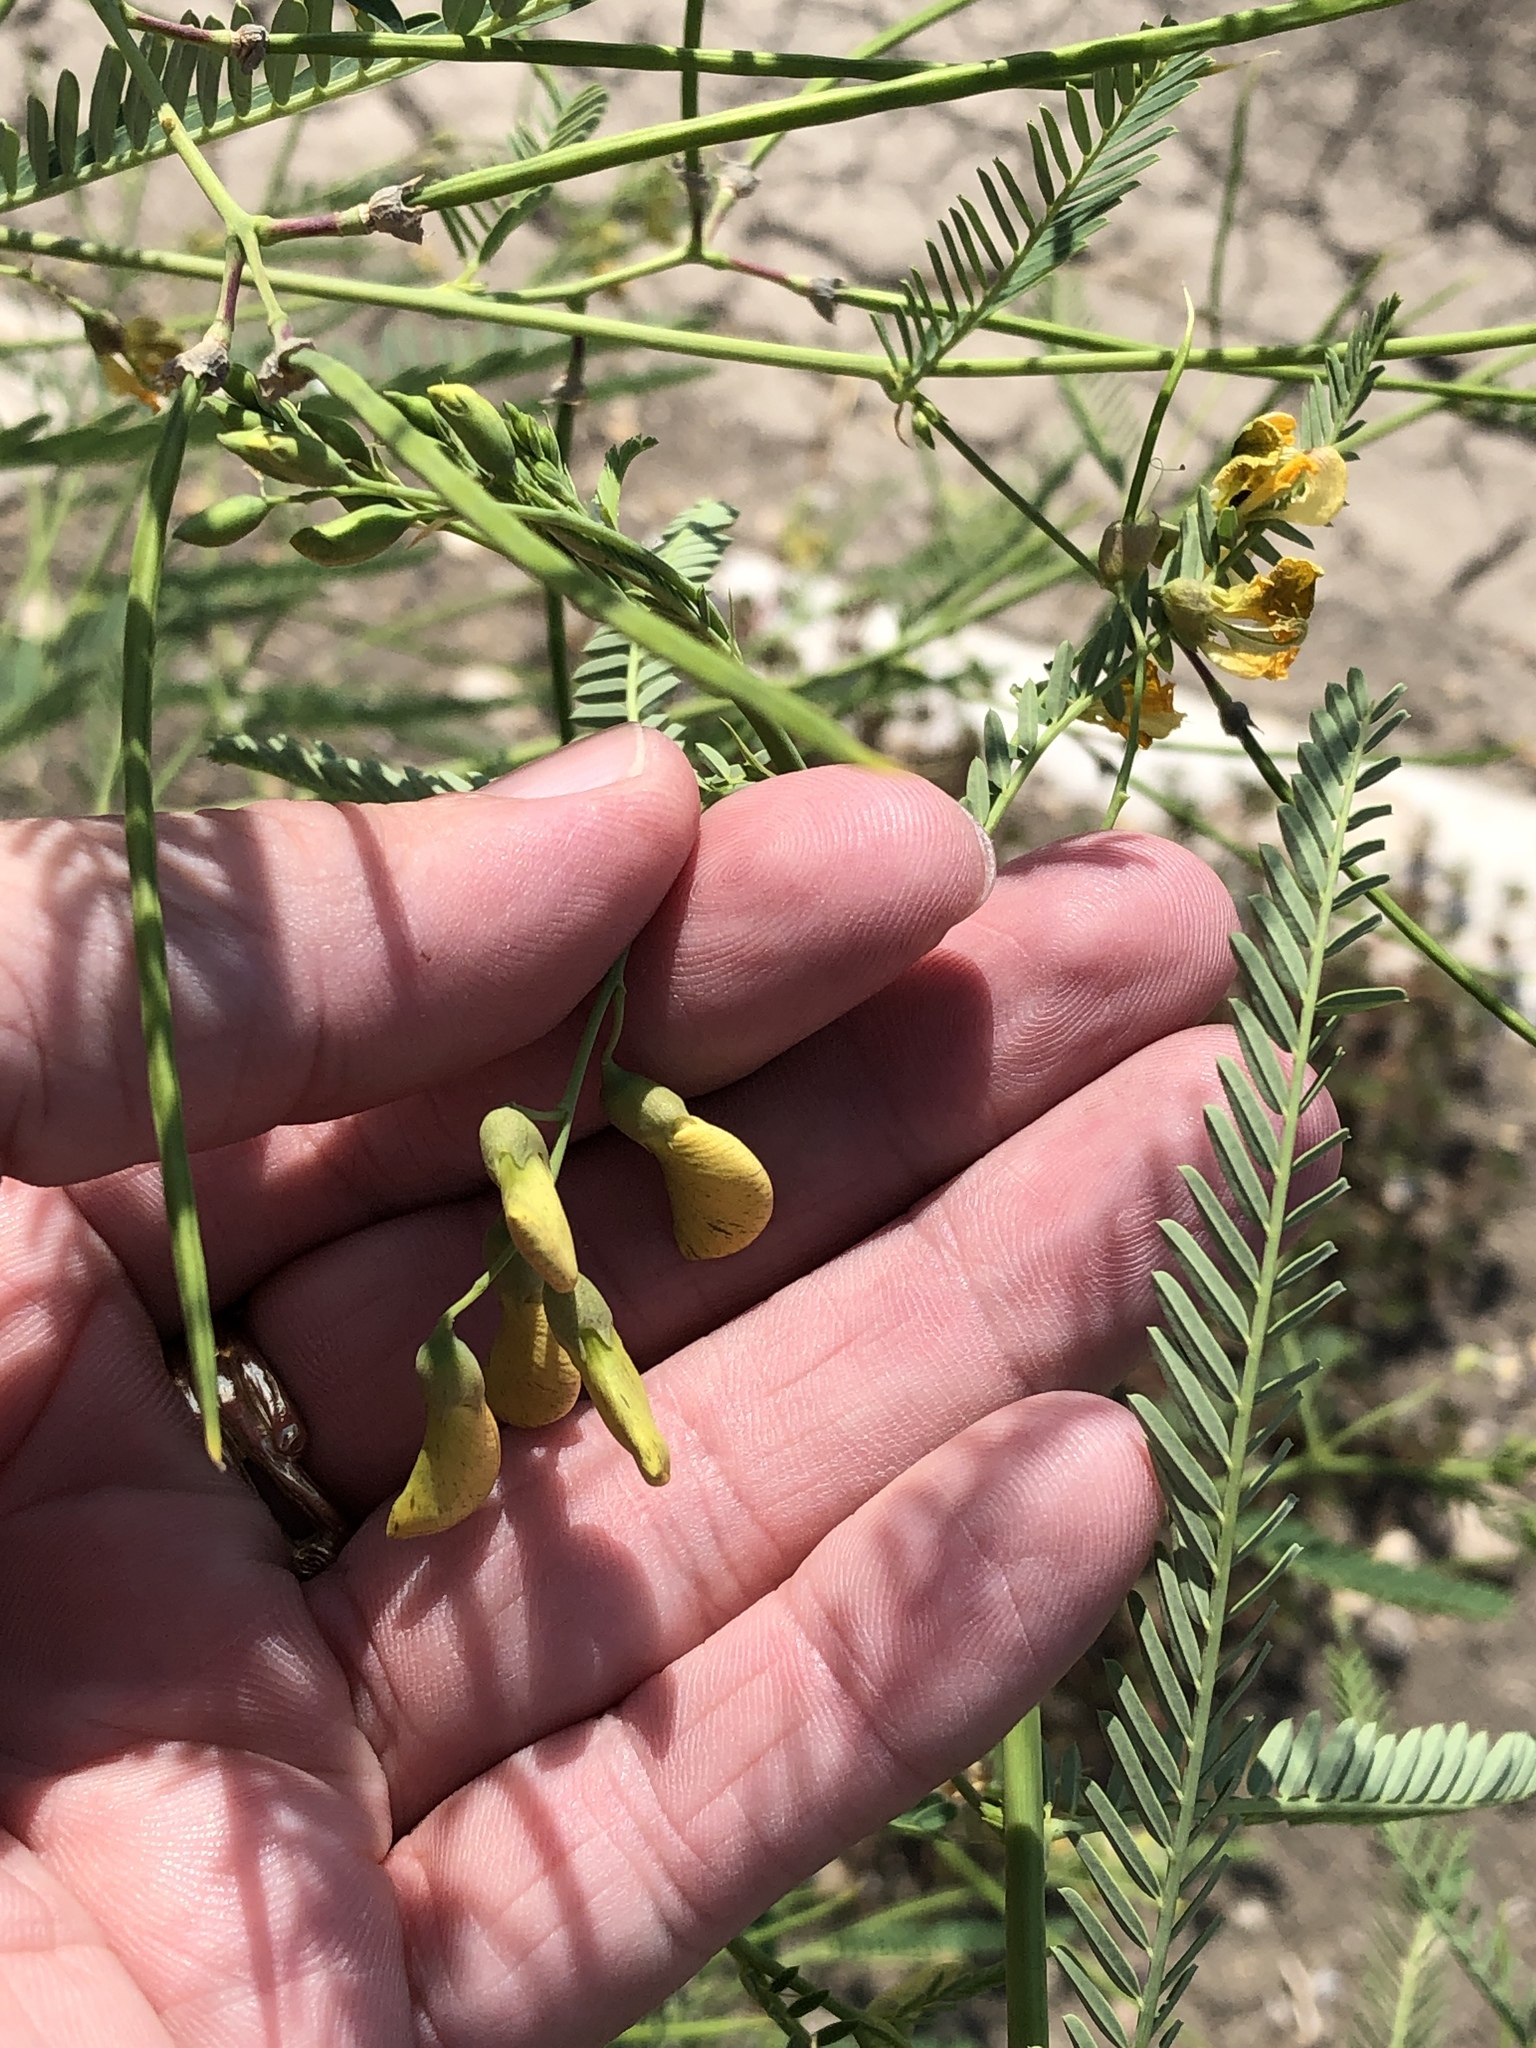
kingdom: Plantae
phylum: Tracheophyta
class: Magnoliopsida
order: Fabales
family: Fabaceae
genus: Sesbania
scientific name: Sesbania herbacea
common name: Bigpod sesbania
